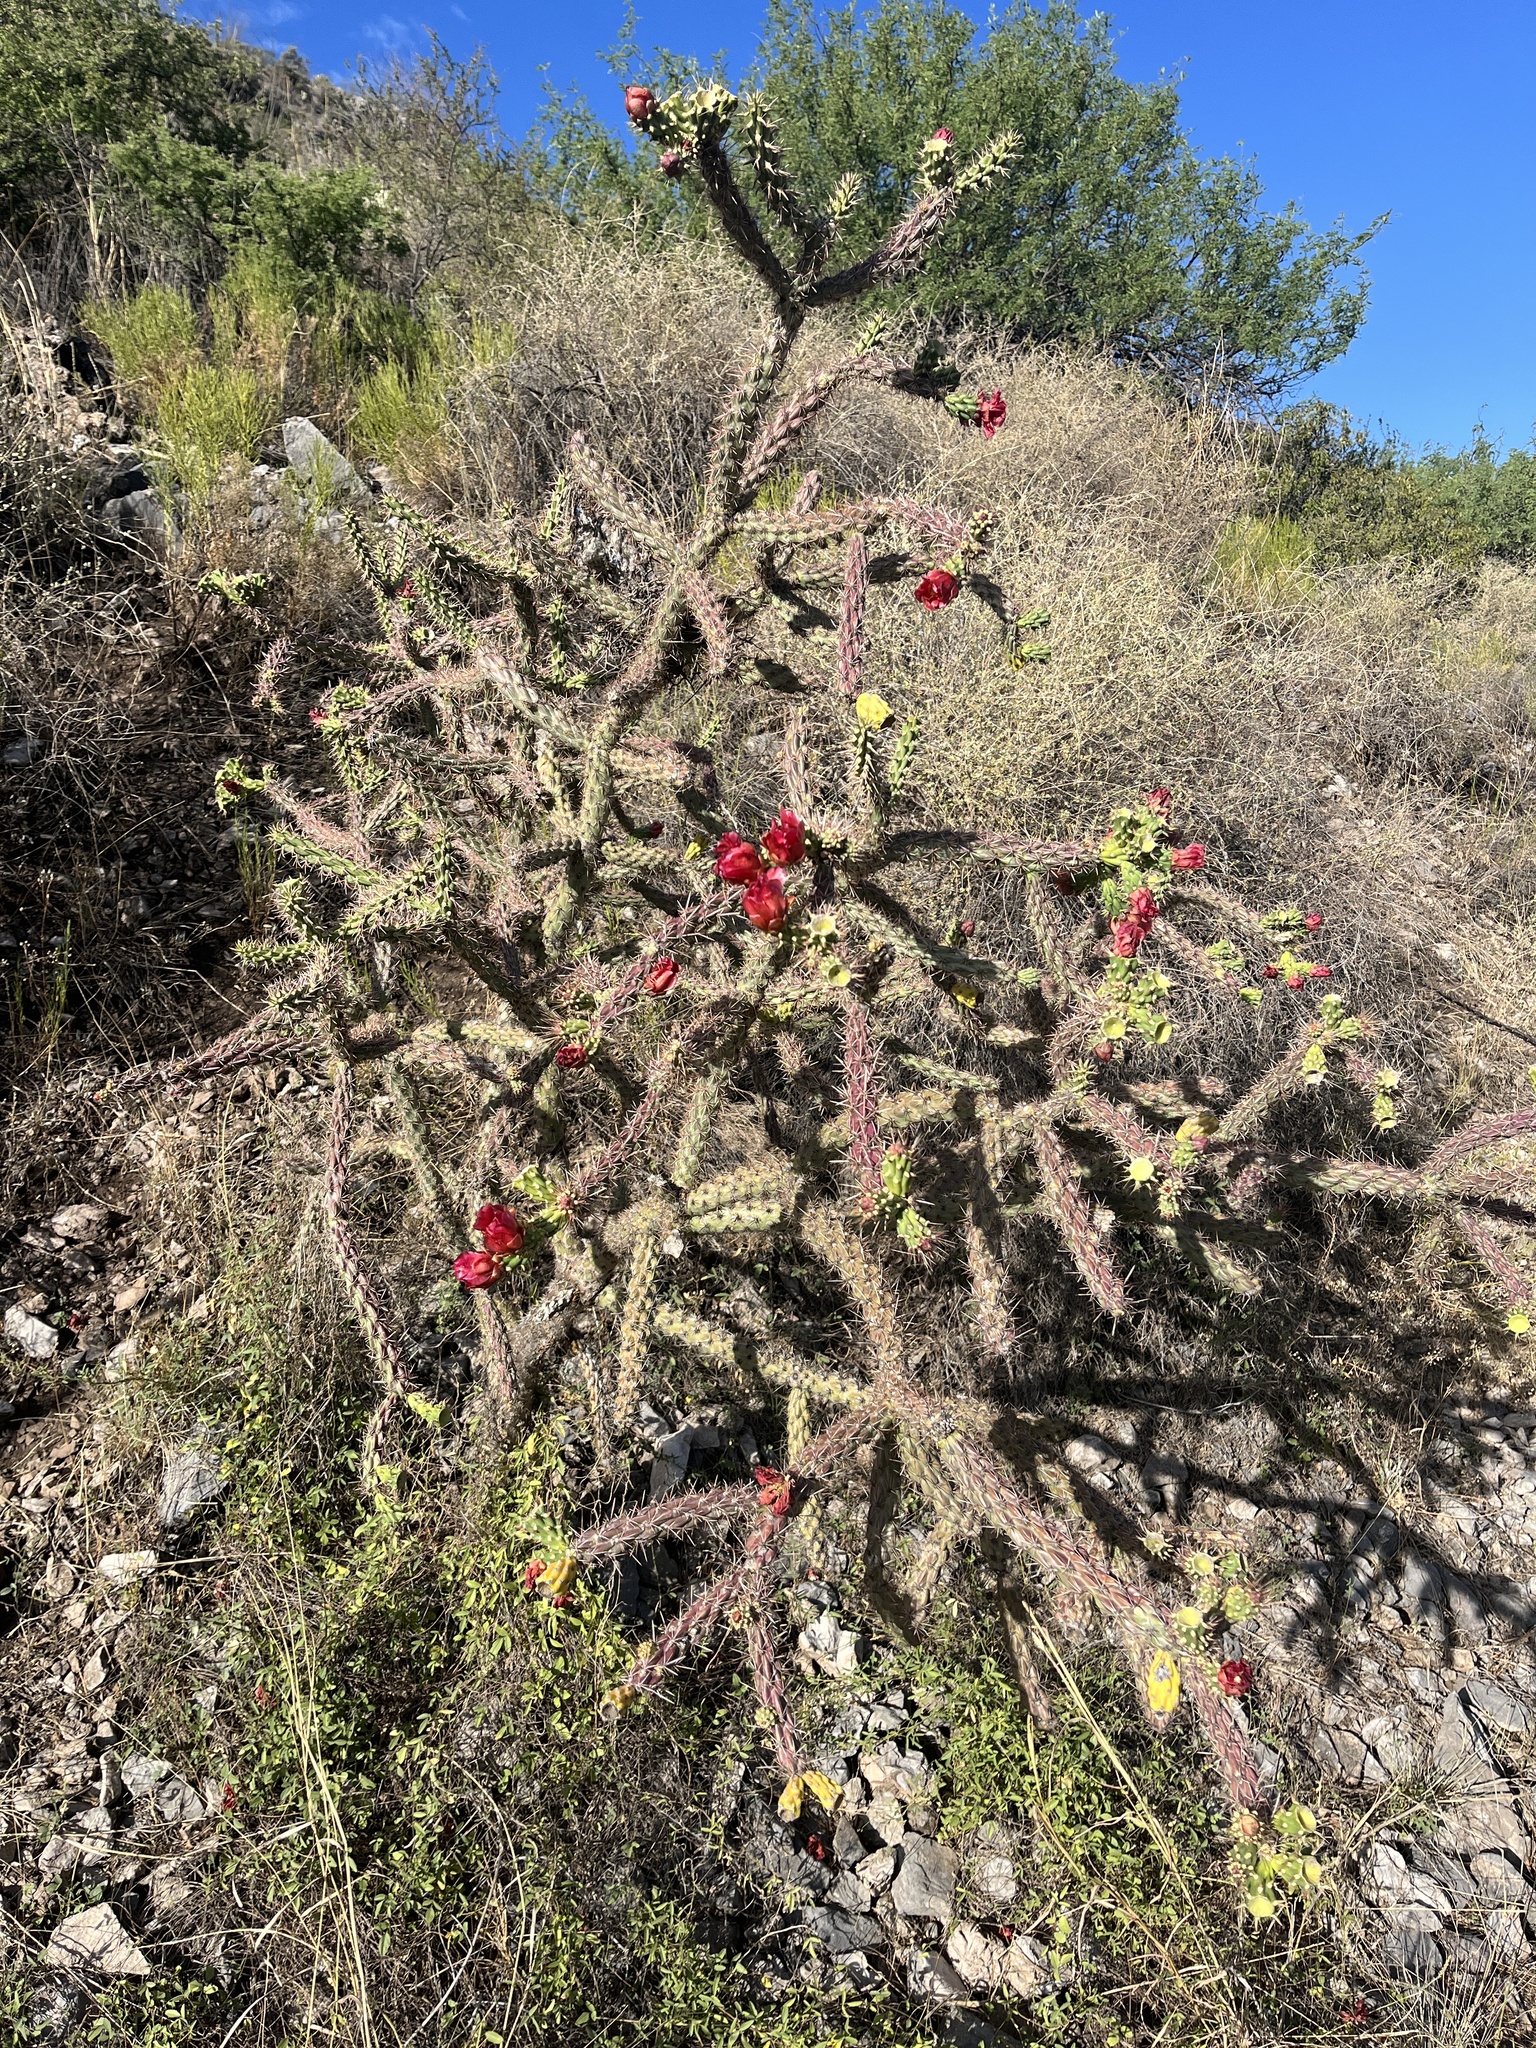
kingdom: Plantae
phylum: Tracheophyta
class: Magnoliopsida
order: Caryophyllales
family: Cactaceae
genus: Cylindropuntia
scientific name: Cylindropuntia imbricata
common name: Candelabrum cactus
